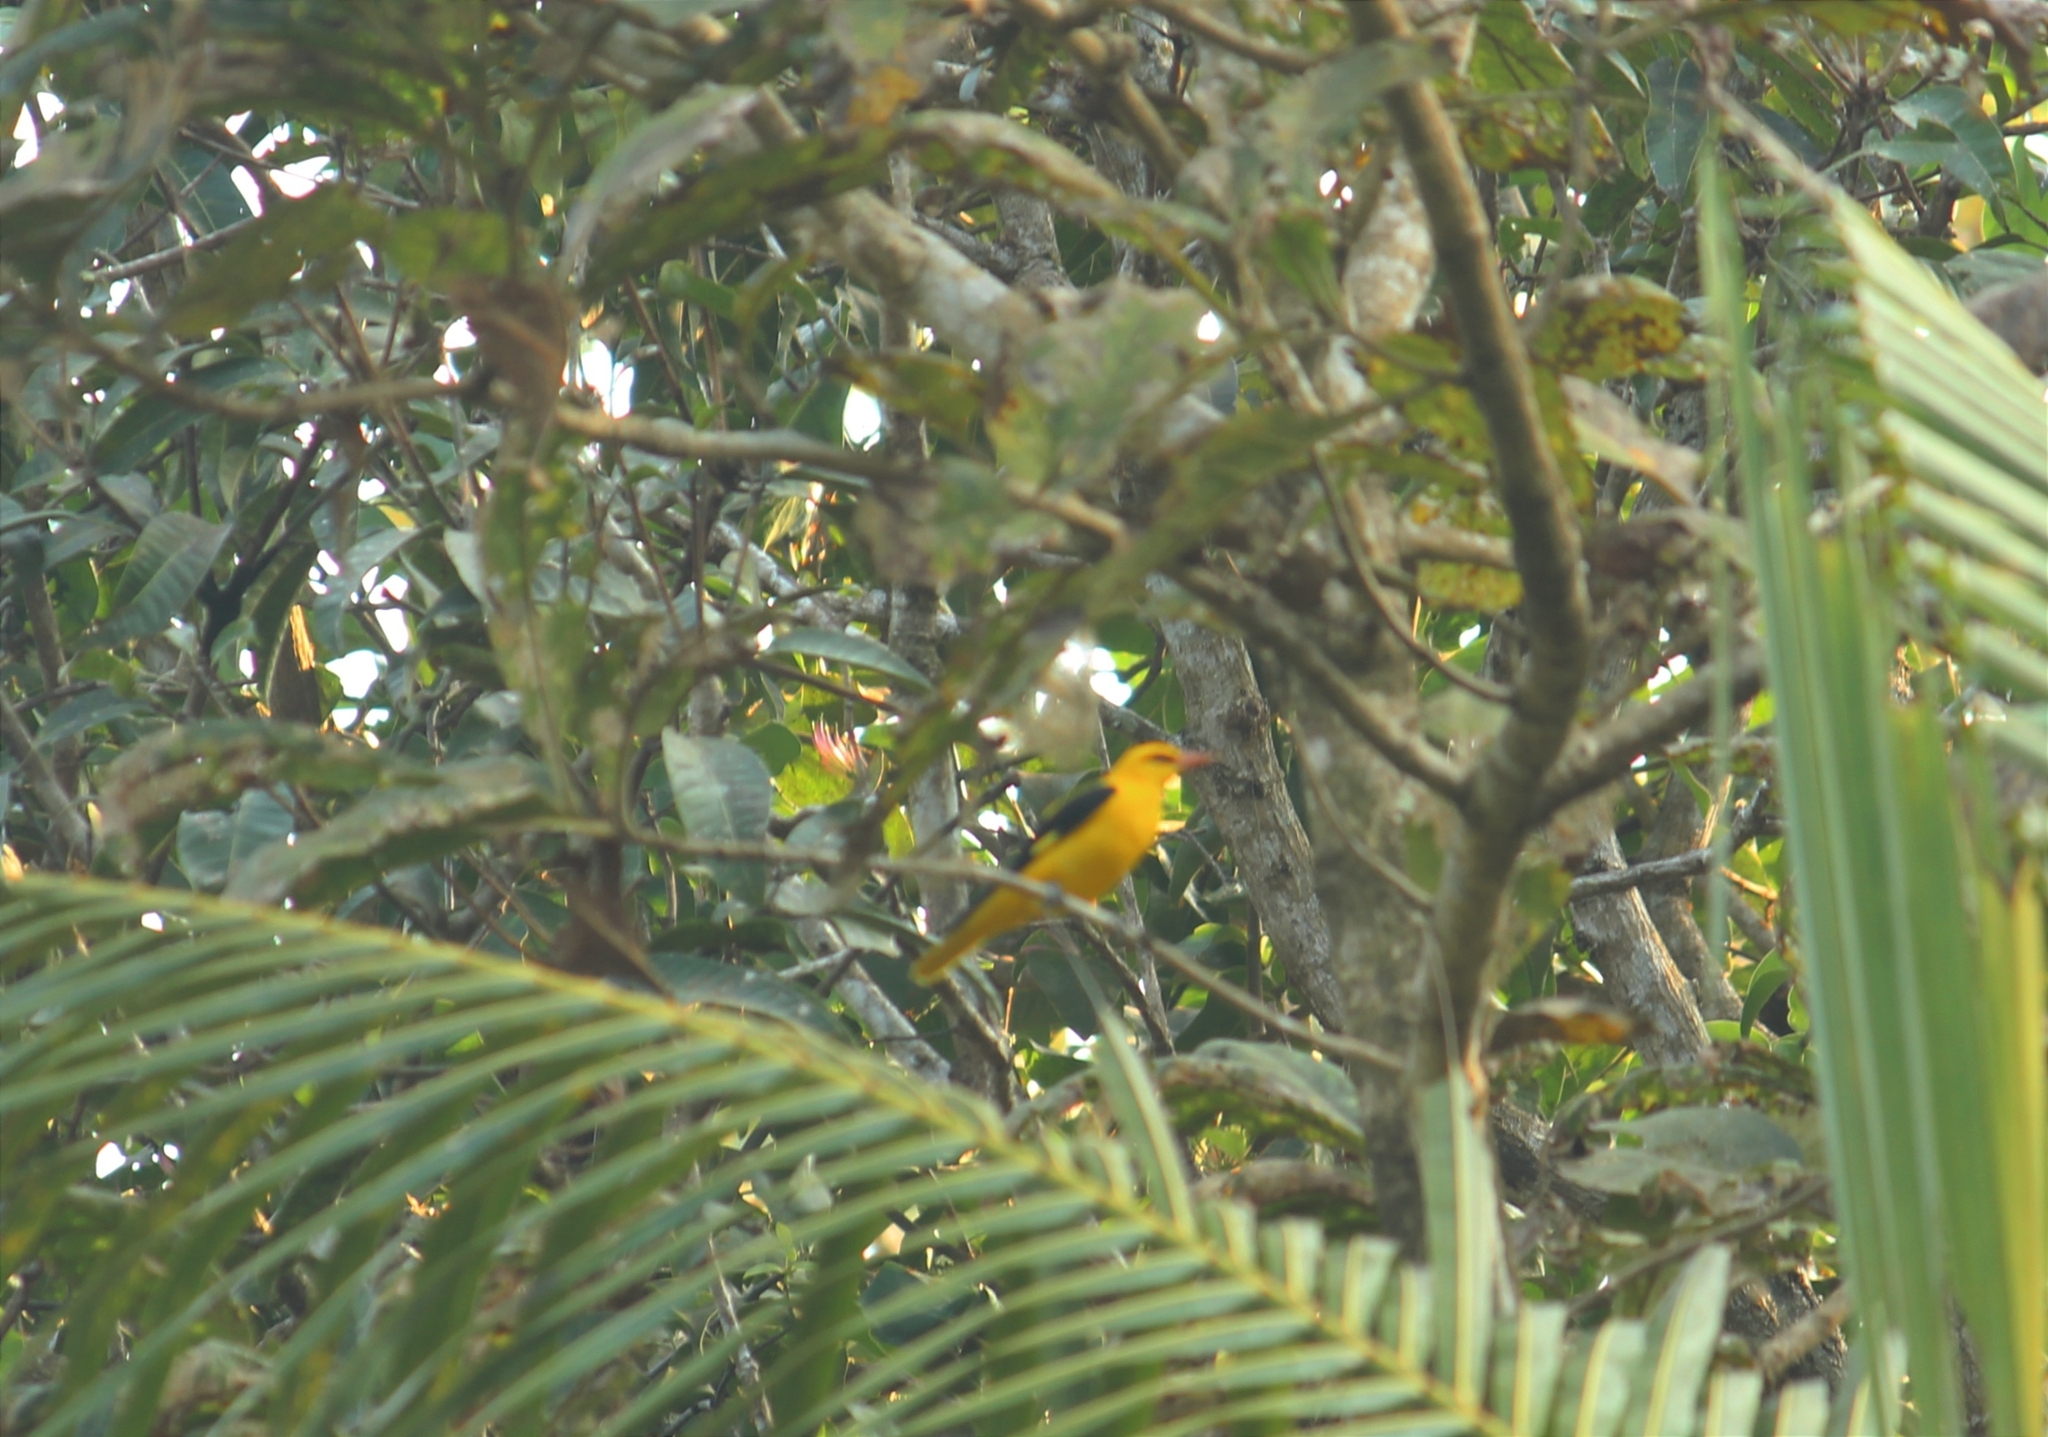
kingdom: Animalia
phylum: Chordata
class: Aves
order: Passeriformes
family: Oriolidae
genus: Oriolus
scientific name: Oriolus kundoo
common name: Indian golden oriole
